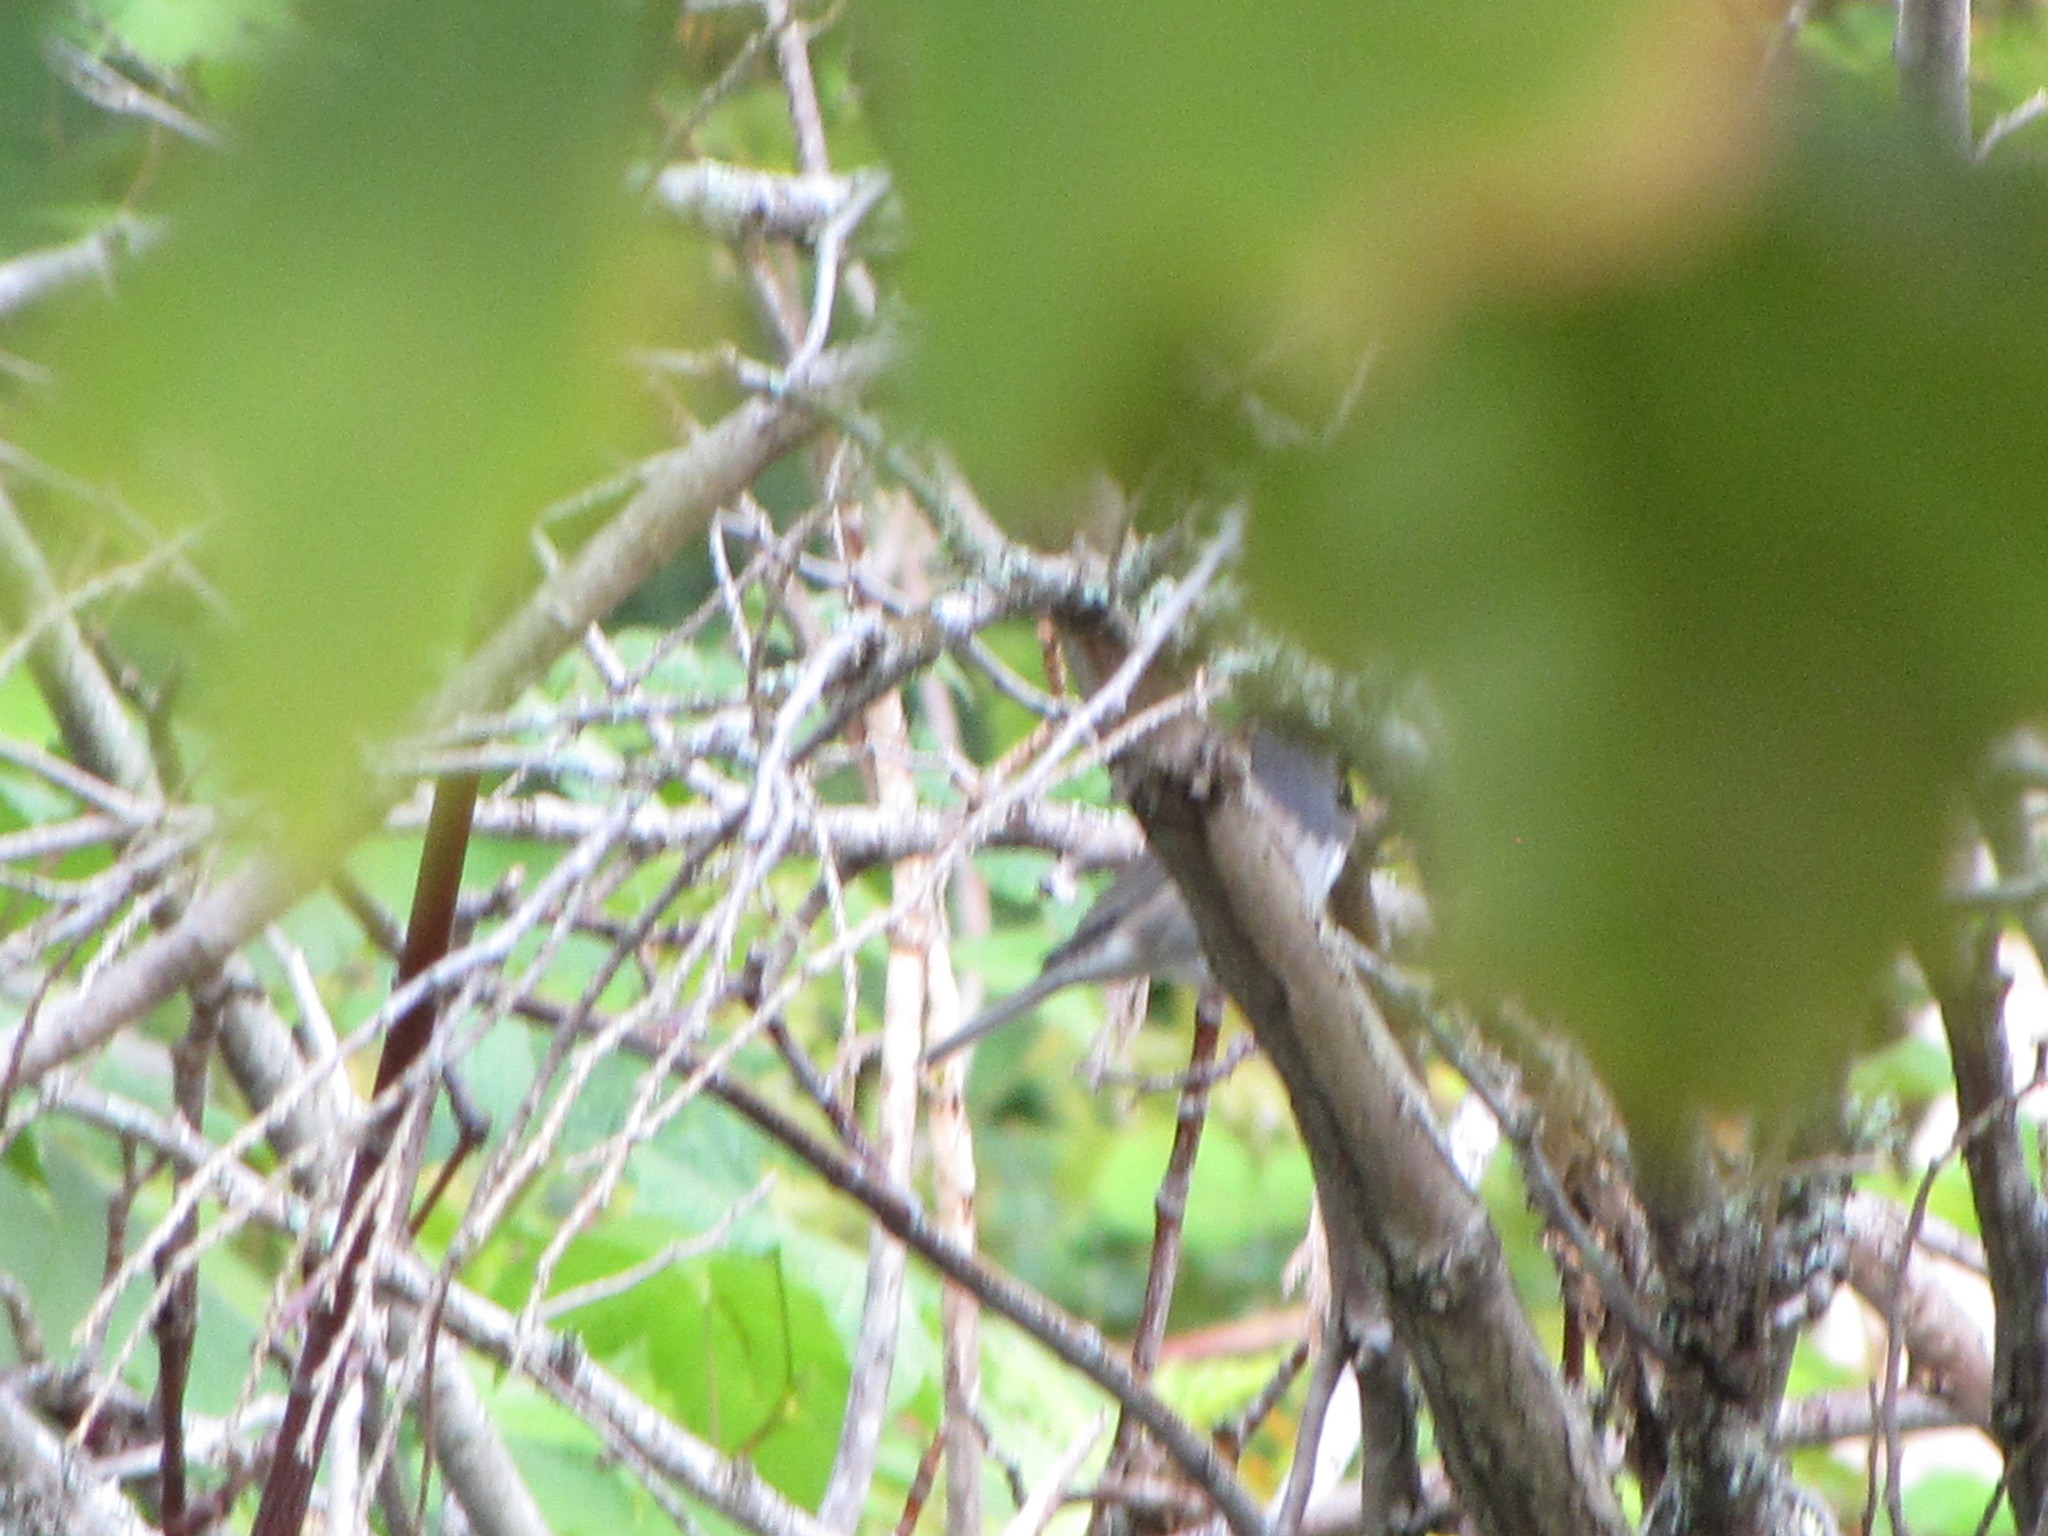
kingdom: Animalia
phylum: Chordata
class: Aves
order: Passeriformes
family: Passerellidae
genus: Junco
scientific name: Junco hyemalis
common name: Dark-eyed junco
